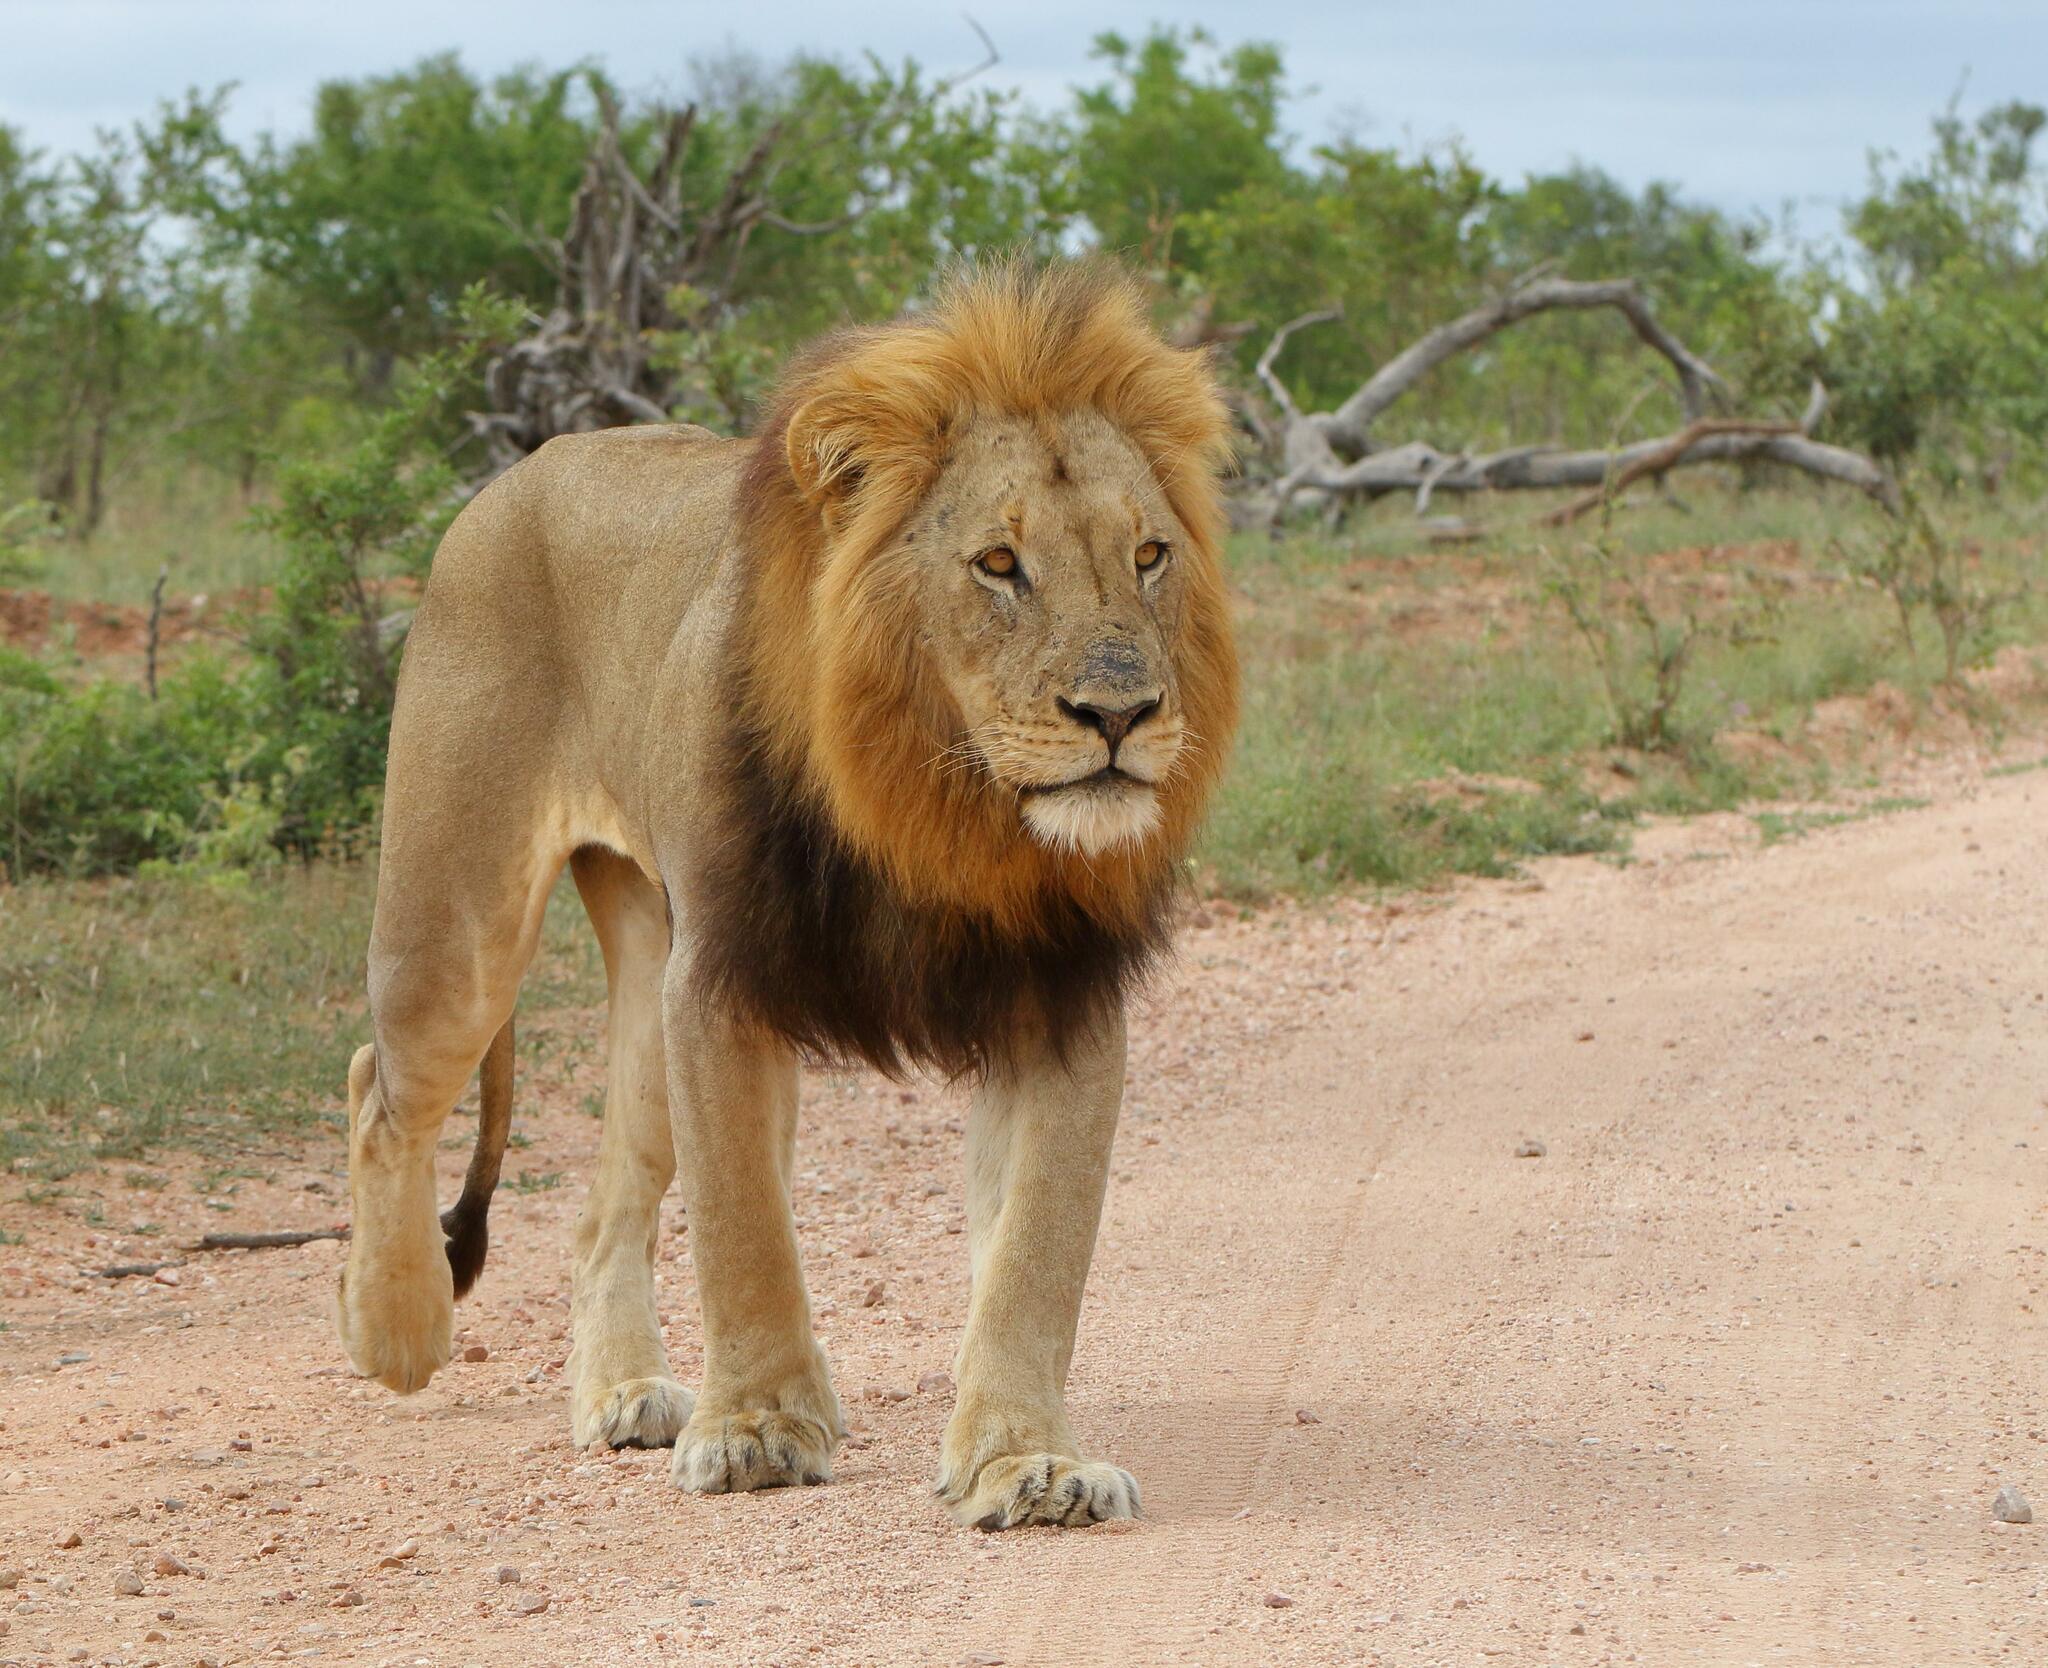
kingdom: Animalia
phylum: Chordata
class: Mammalia
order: Carnivora
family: Felidae
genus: Panthera
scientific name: Panthera leo
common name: Lion
